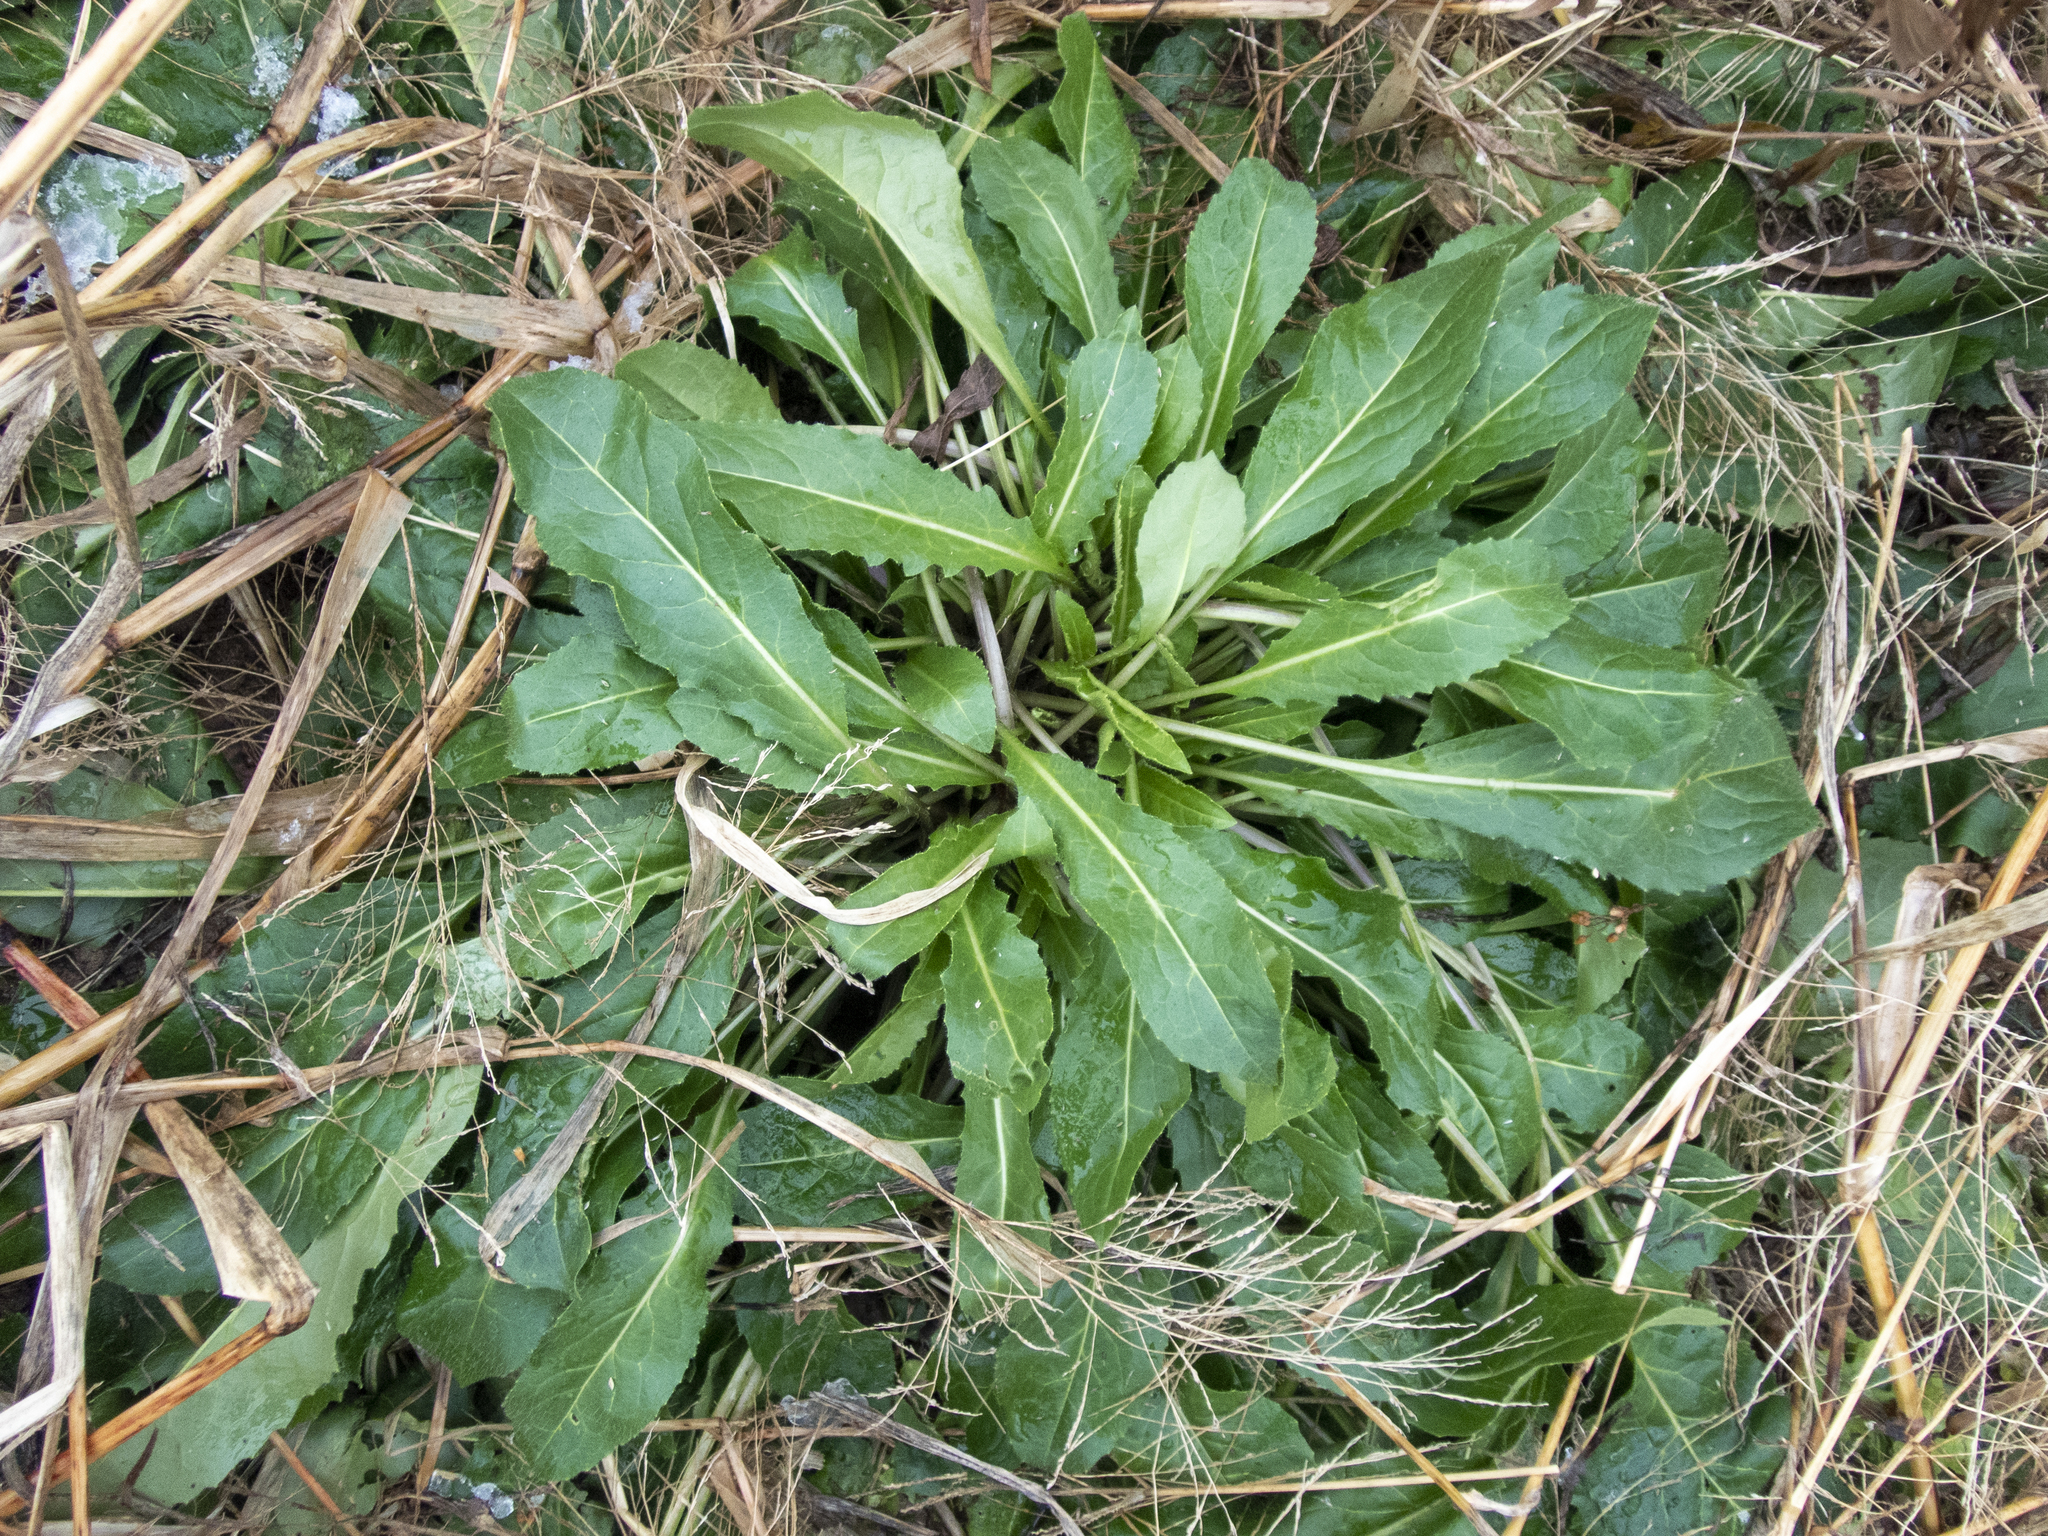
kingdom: Plantae
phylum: Tracheophyta
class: Magnoliopsida
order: Brassicales
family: Brassicaceae
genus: Hesperis
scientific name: Hesperis matronalis
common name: Dame's-violet
